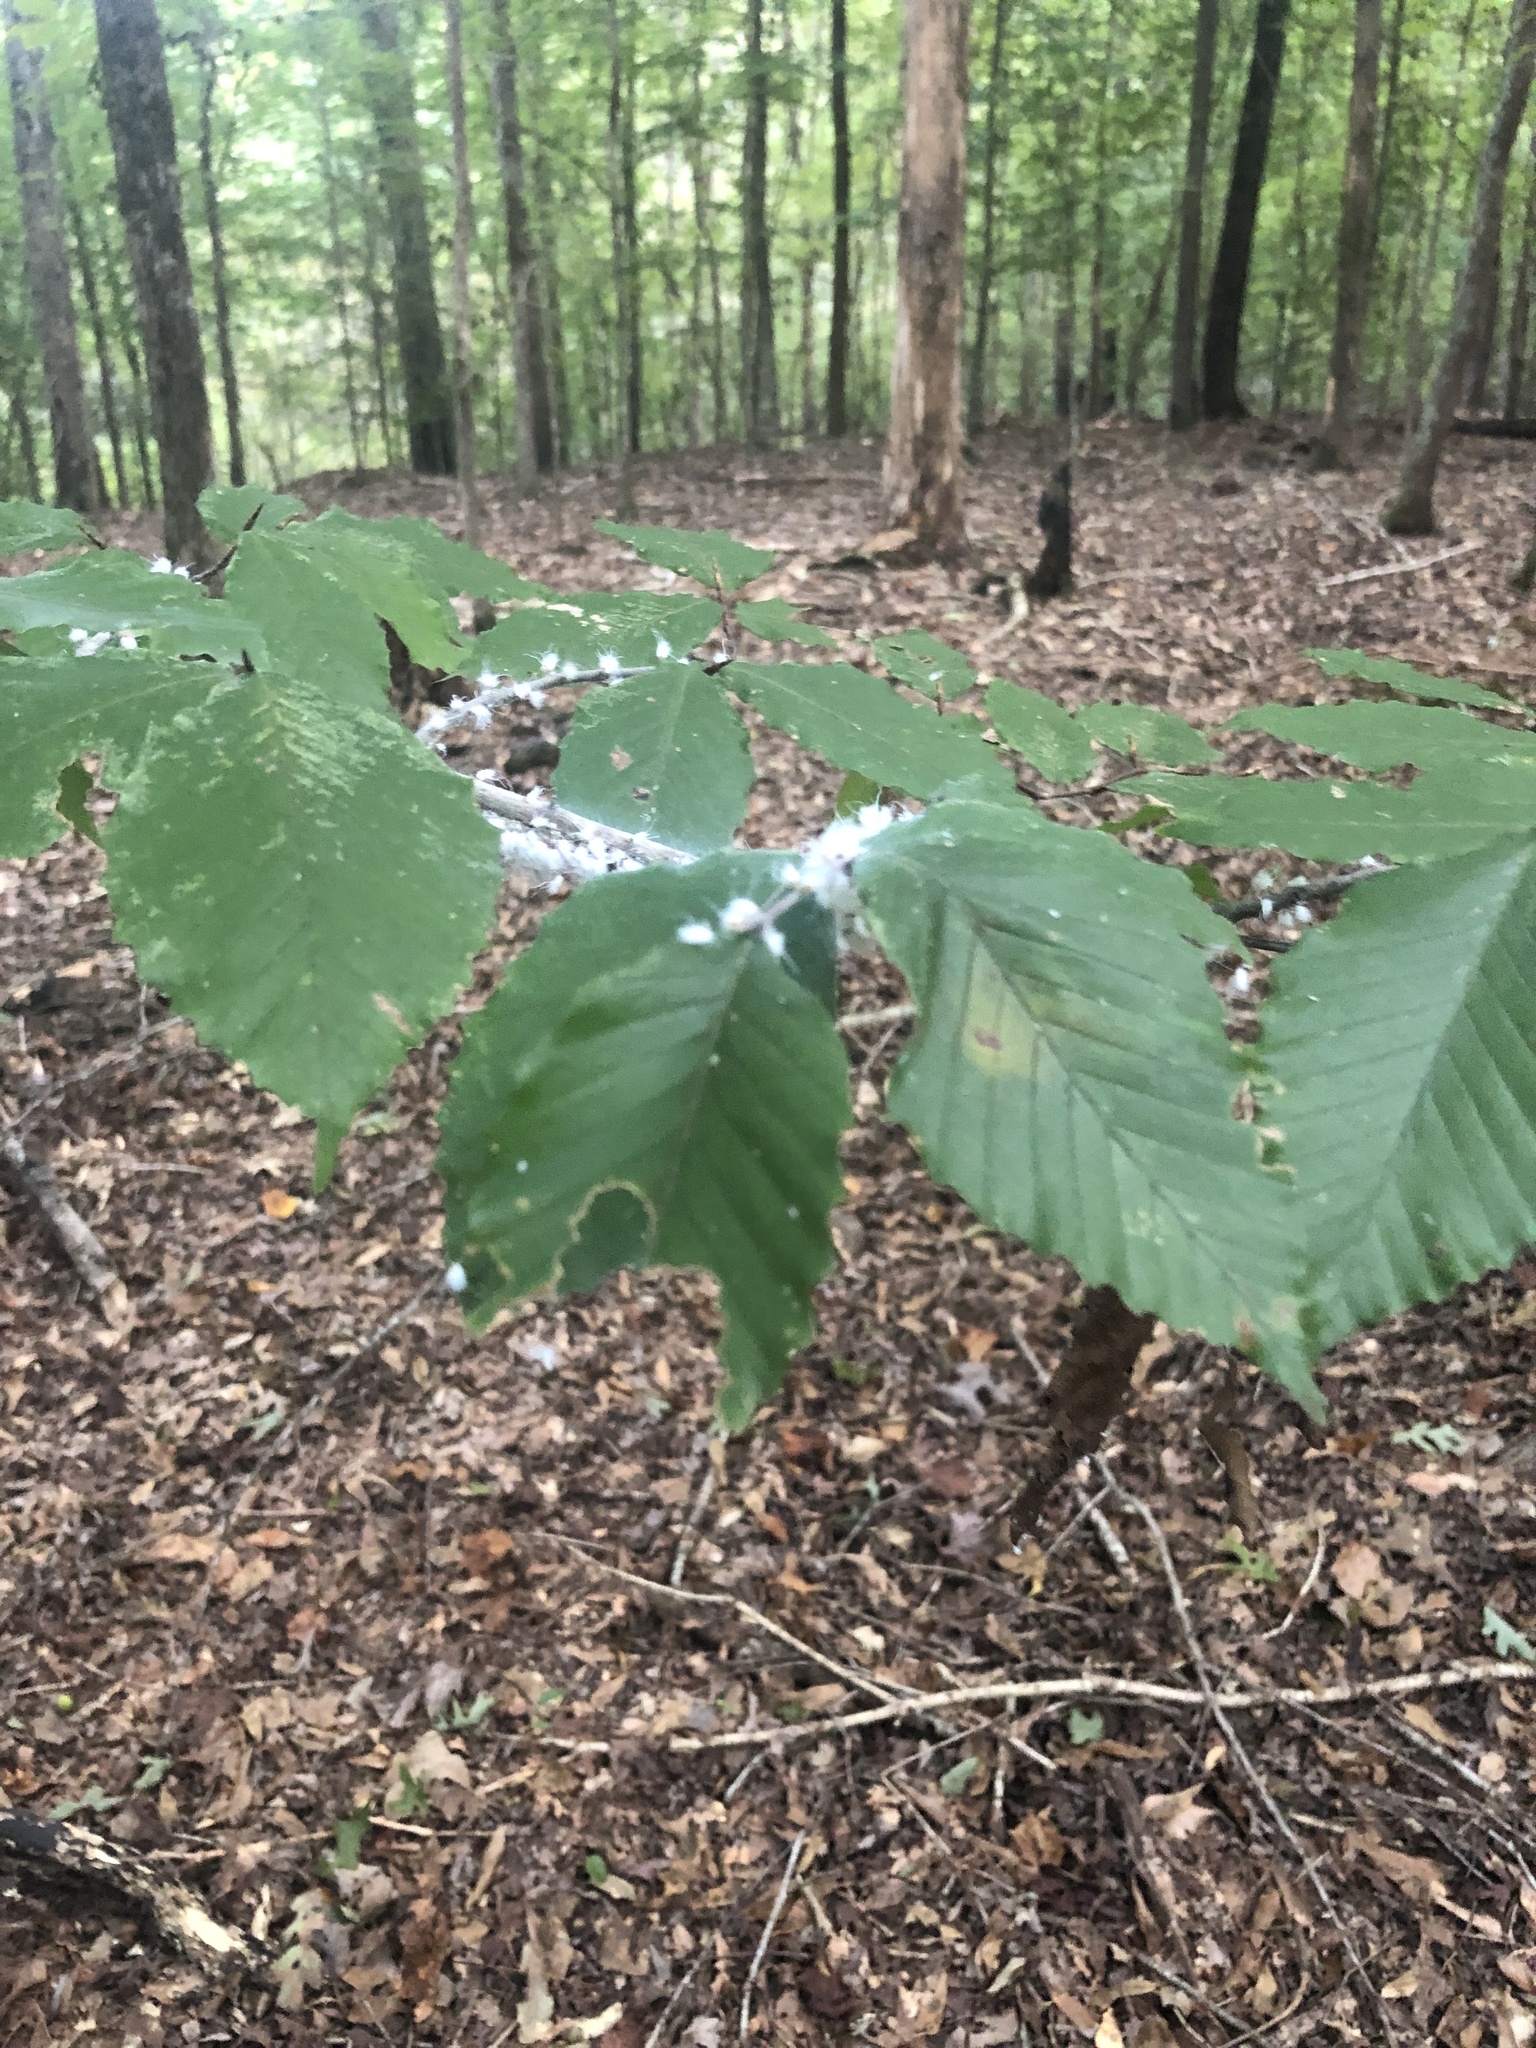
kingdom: Animalia
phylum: Arthropoda
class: Insecta
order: Hemiptera
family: Aphididae
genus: Grylloprociphilus
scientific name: Grylloprociphilus imbricator
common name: Beech blight aphid
